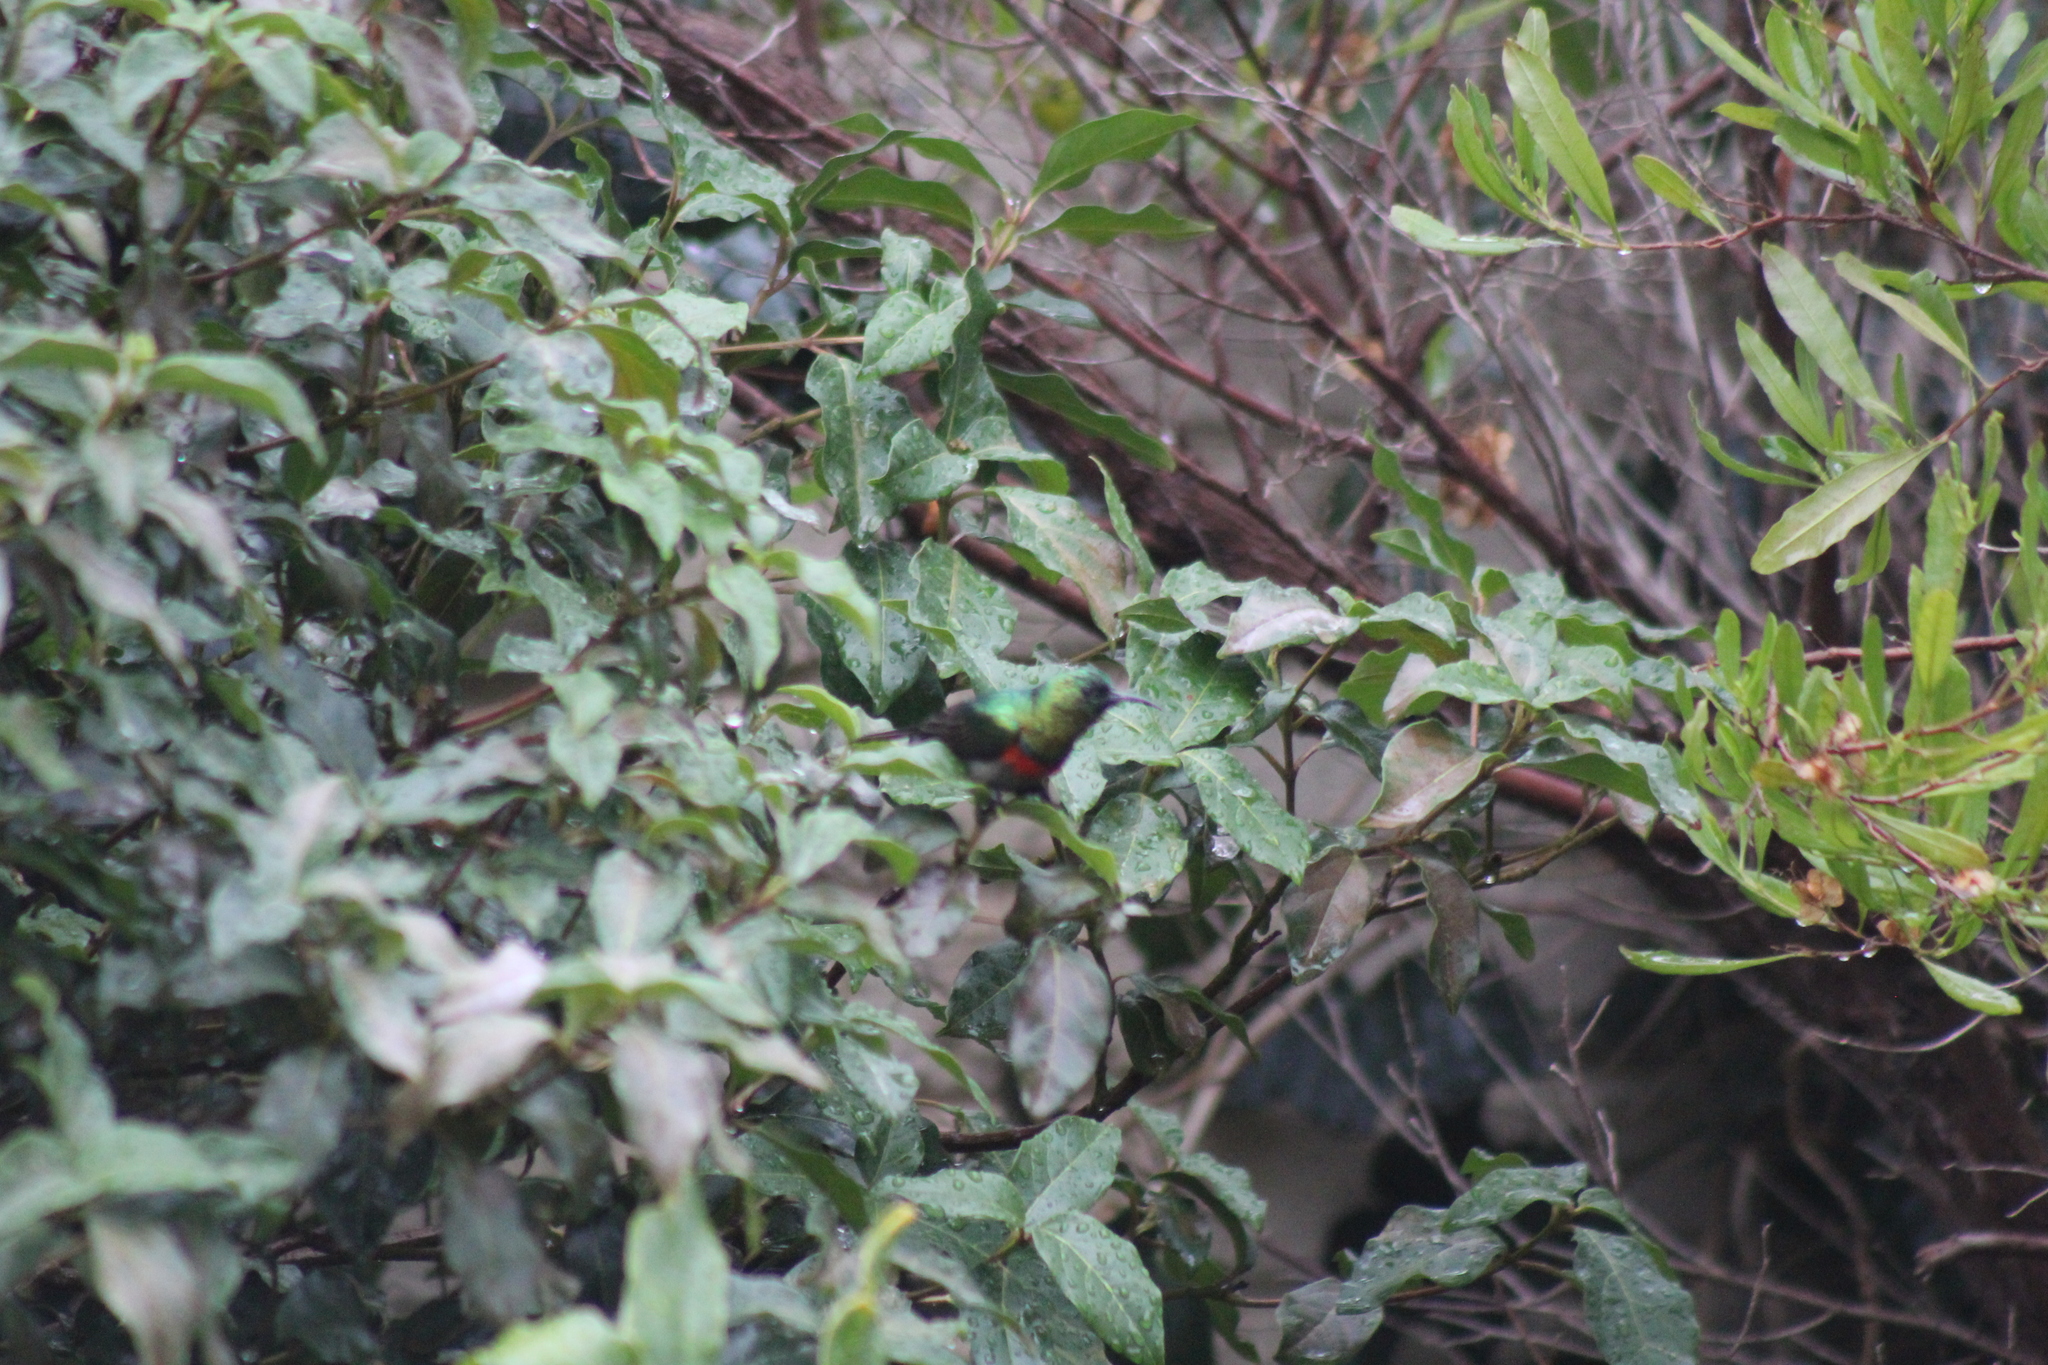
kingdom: Animalia
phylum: Chordata
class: Aves
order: Passeriformes
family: Nectariniidae
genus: Cinnyris
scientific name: Cinnyris chalybeus
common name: Southern double-collared sunbird
